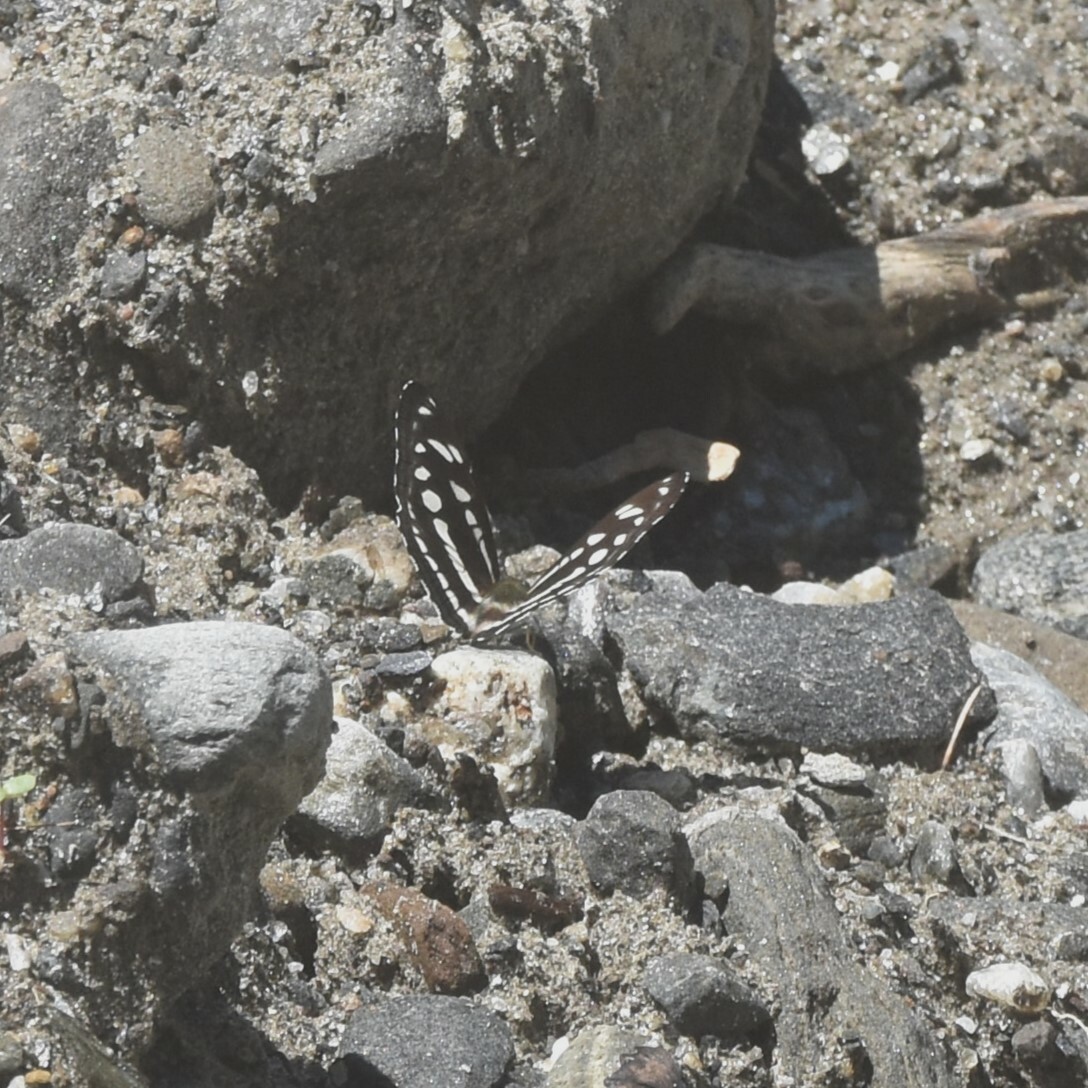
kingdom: Animalia
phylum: Arthropoda
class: Insecta
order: Lepidoptera
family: Nymphalidae
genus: Parathyma
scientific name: Parathyma opalina
